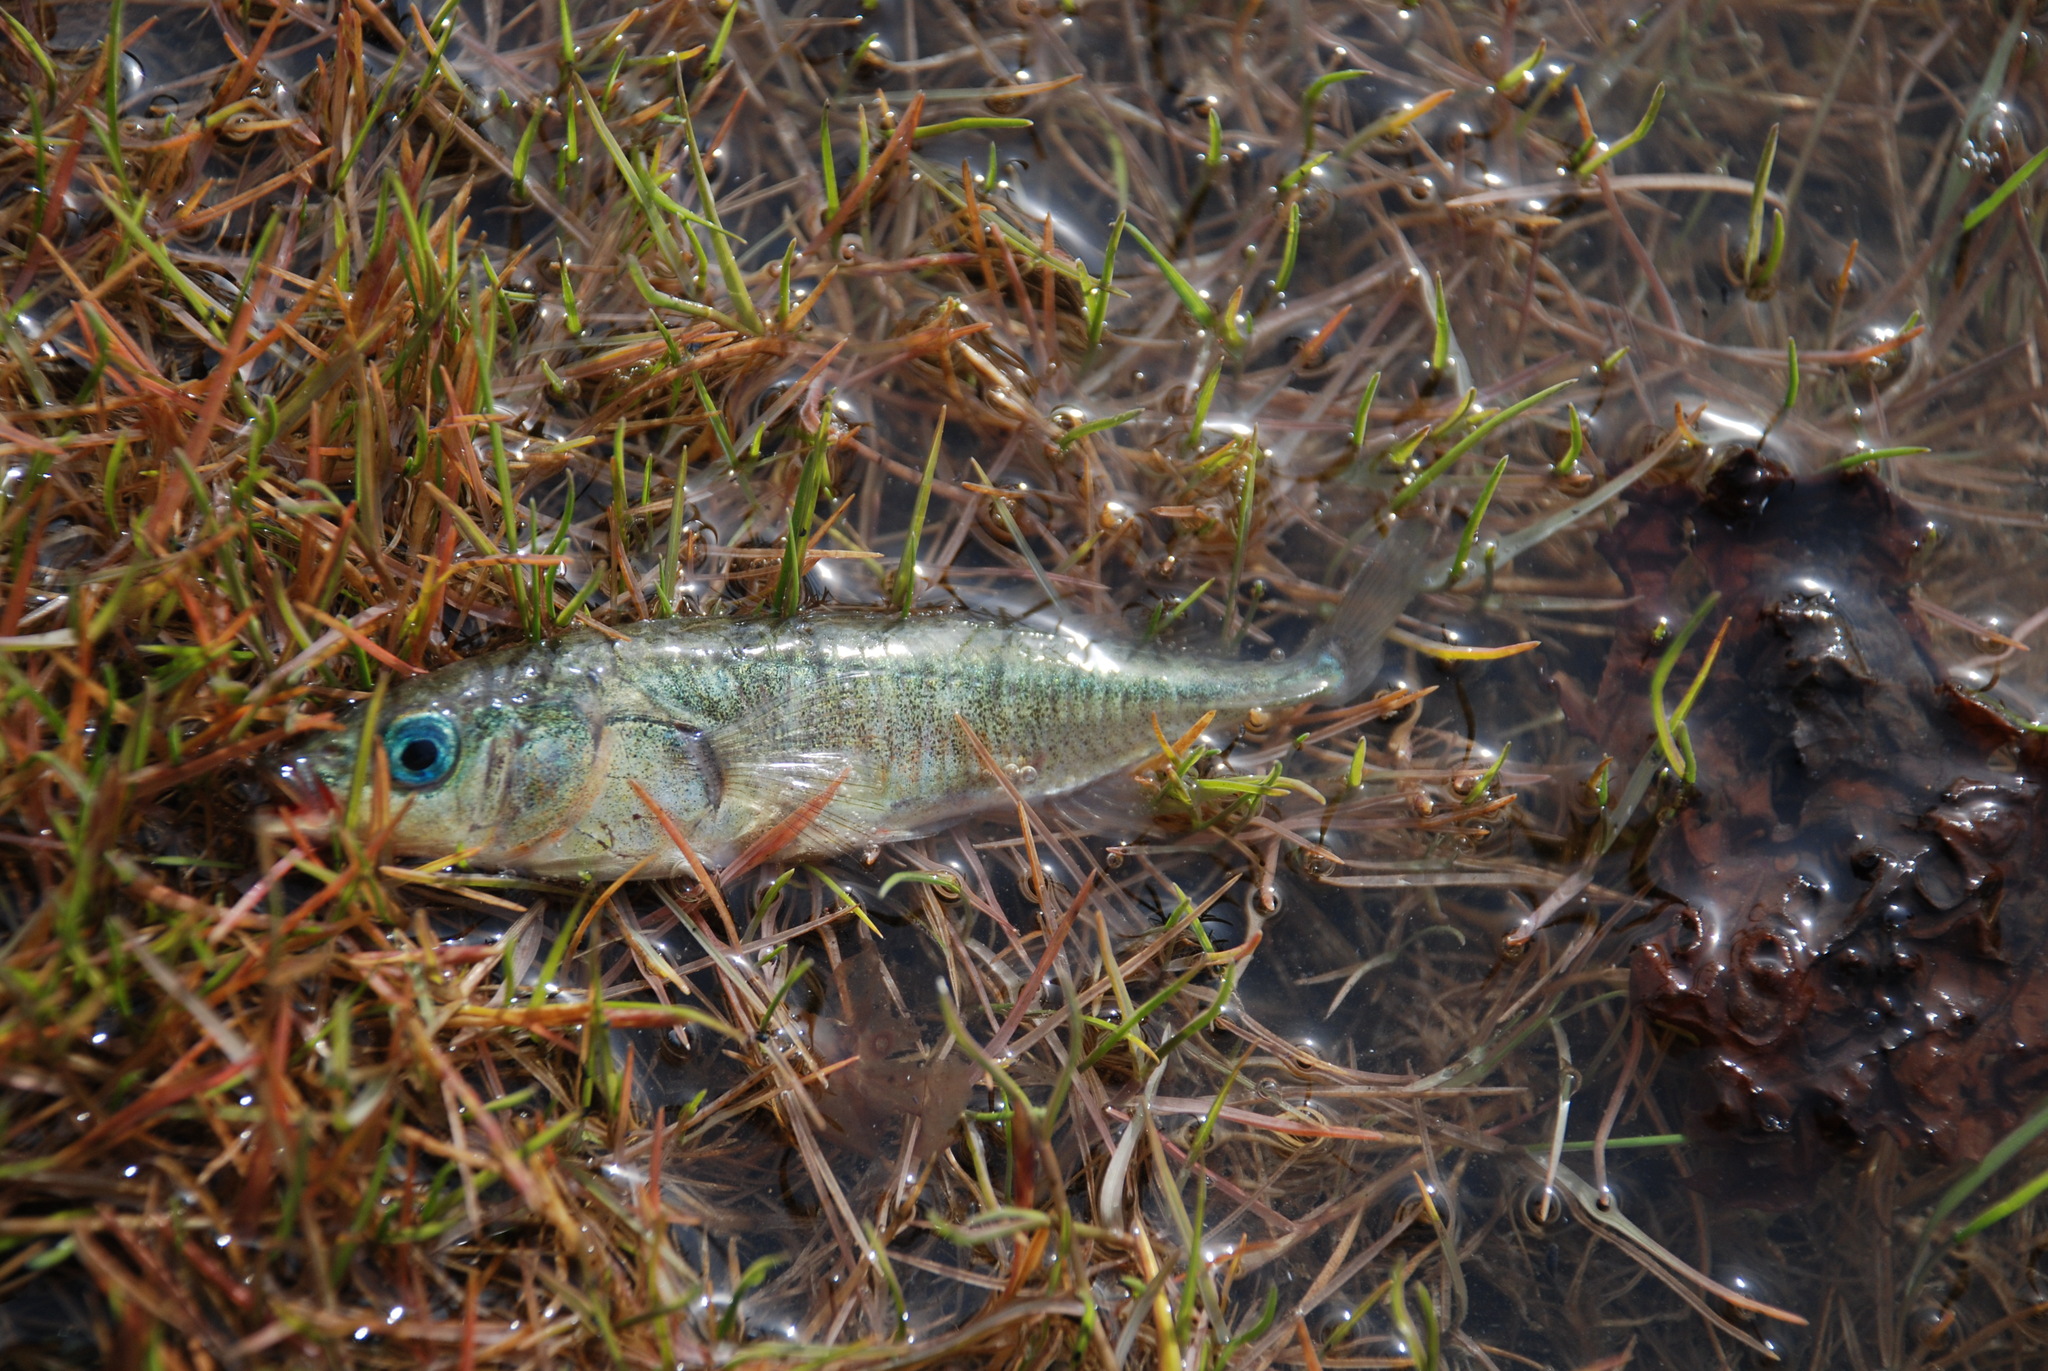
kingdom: Animalia
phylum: Chordata
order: Gasterosteiformes
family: Gasterosteidae
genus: Gasterosteus
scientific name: Gasterosteus aculeatus
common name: Three-spined stickleback
